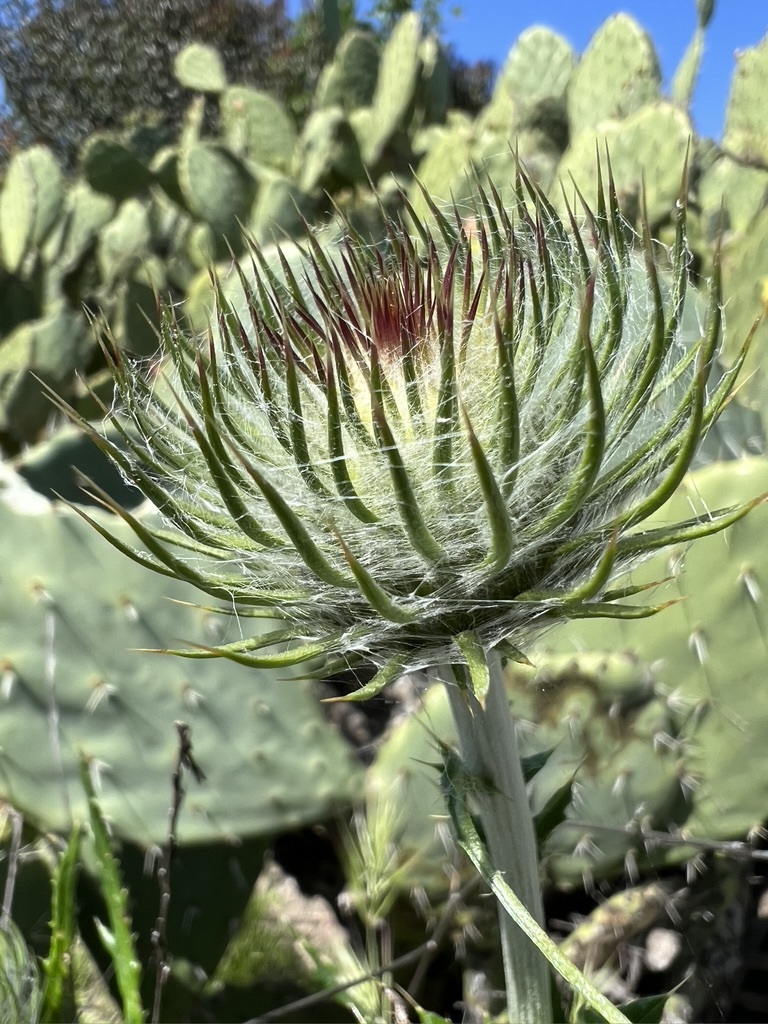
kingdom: Plantae
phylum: Tracheophyta
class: Magnoliopsida
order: Asterales
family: Asteraceae
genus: Cirsium
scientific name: Cirsium occidentale
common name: Western thistle
